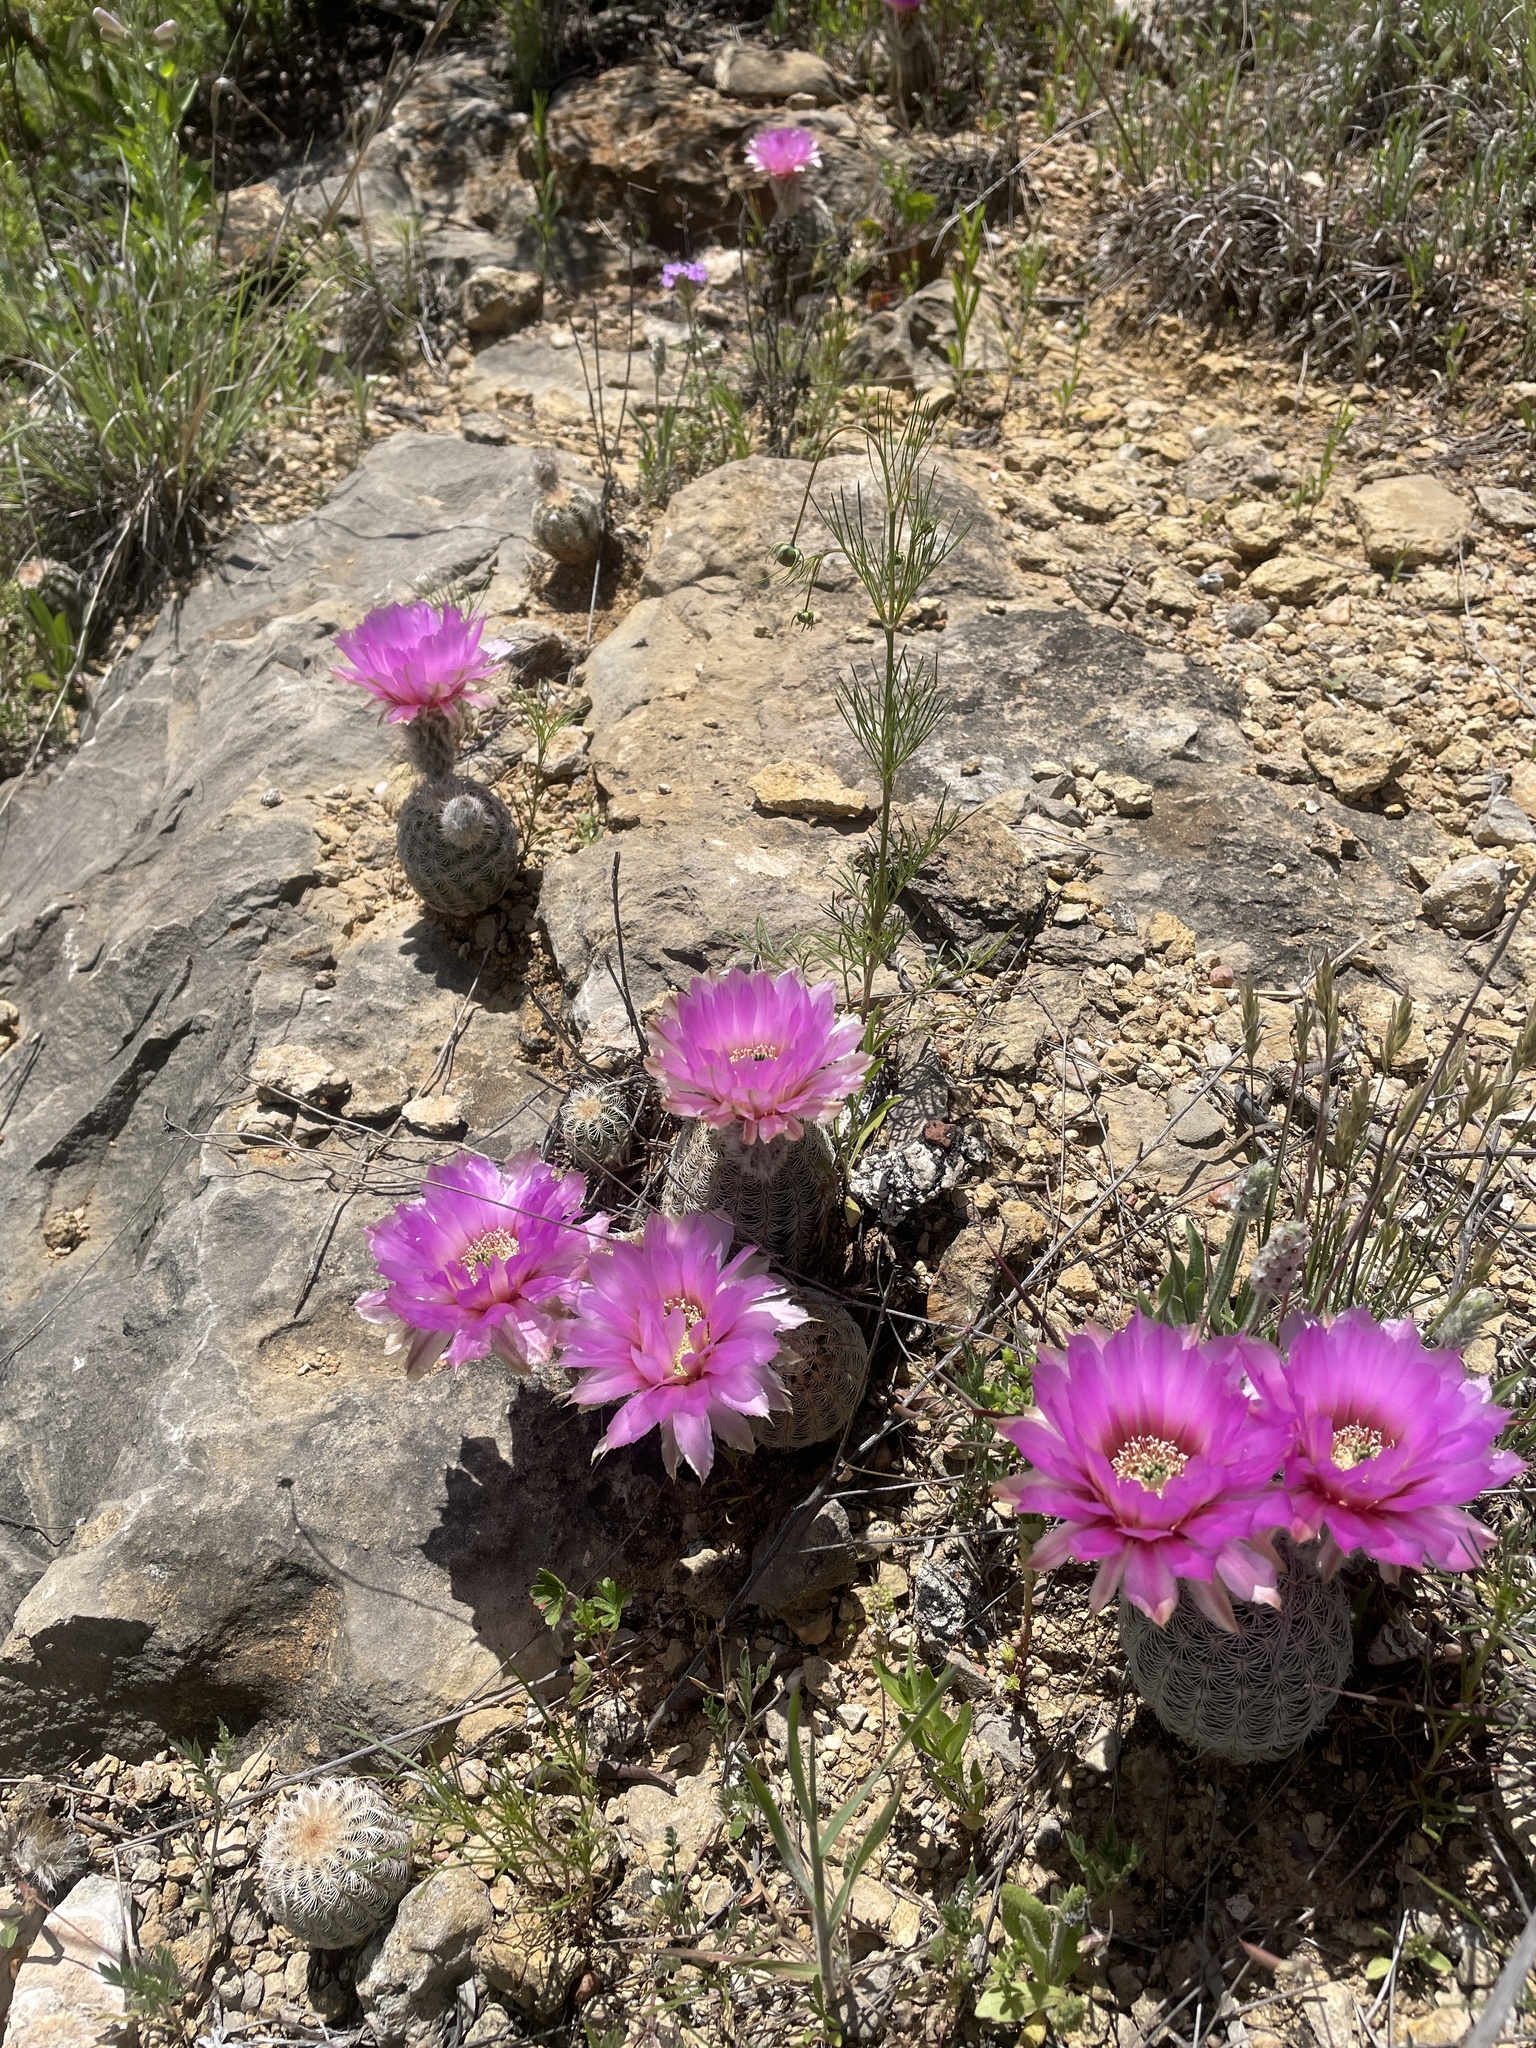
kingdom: Plantae
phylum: Tracheophyta
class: Magnoliopsida
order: Caryophyllales
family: Cactaceae
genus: Echinocereus
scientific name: Echinocereus reichenbachii
